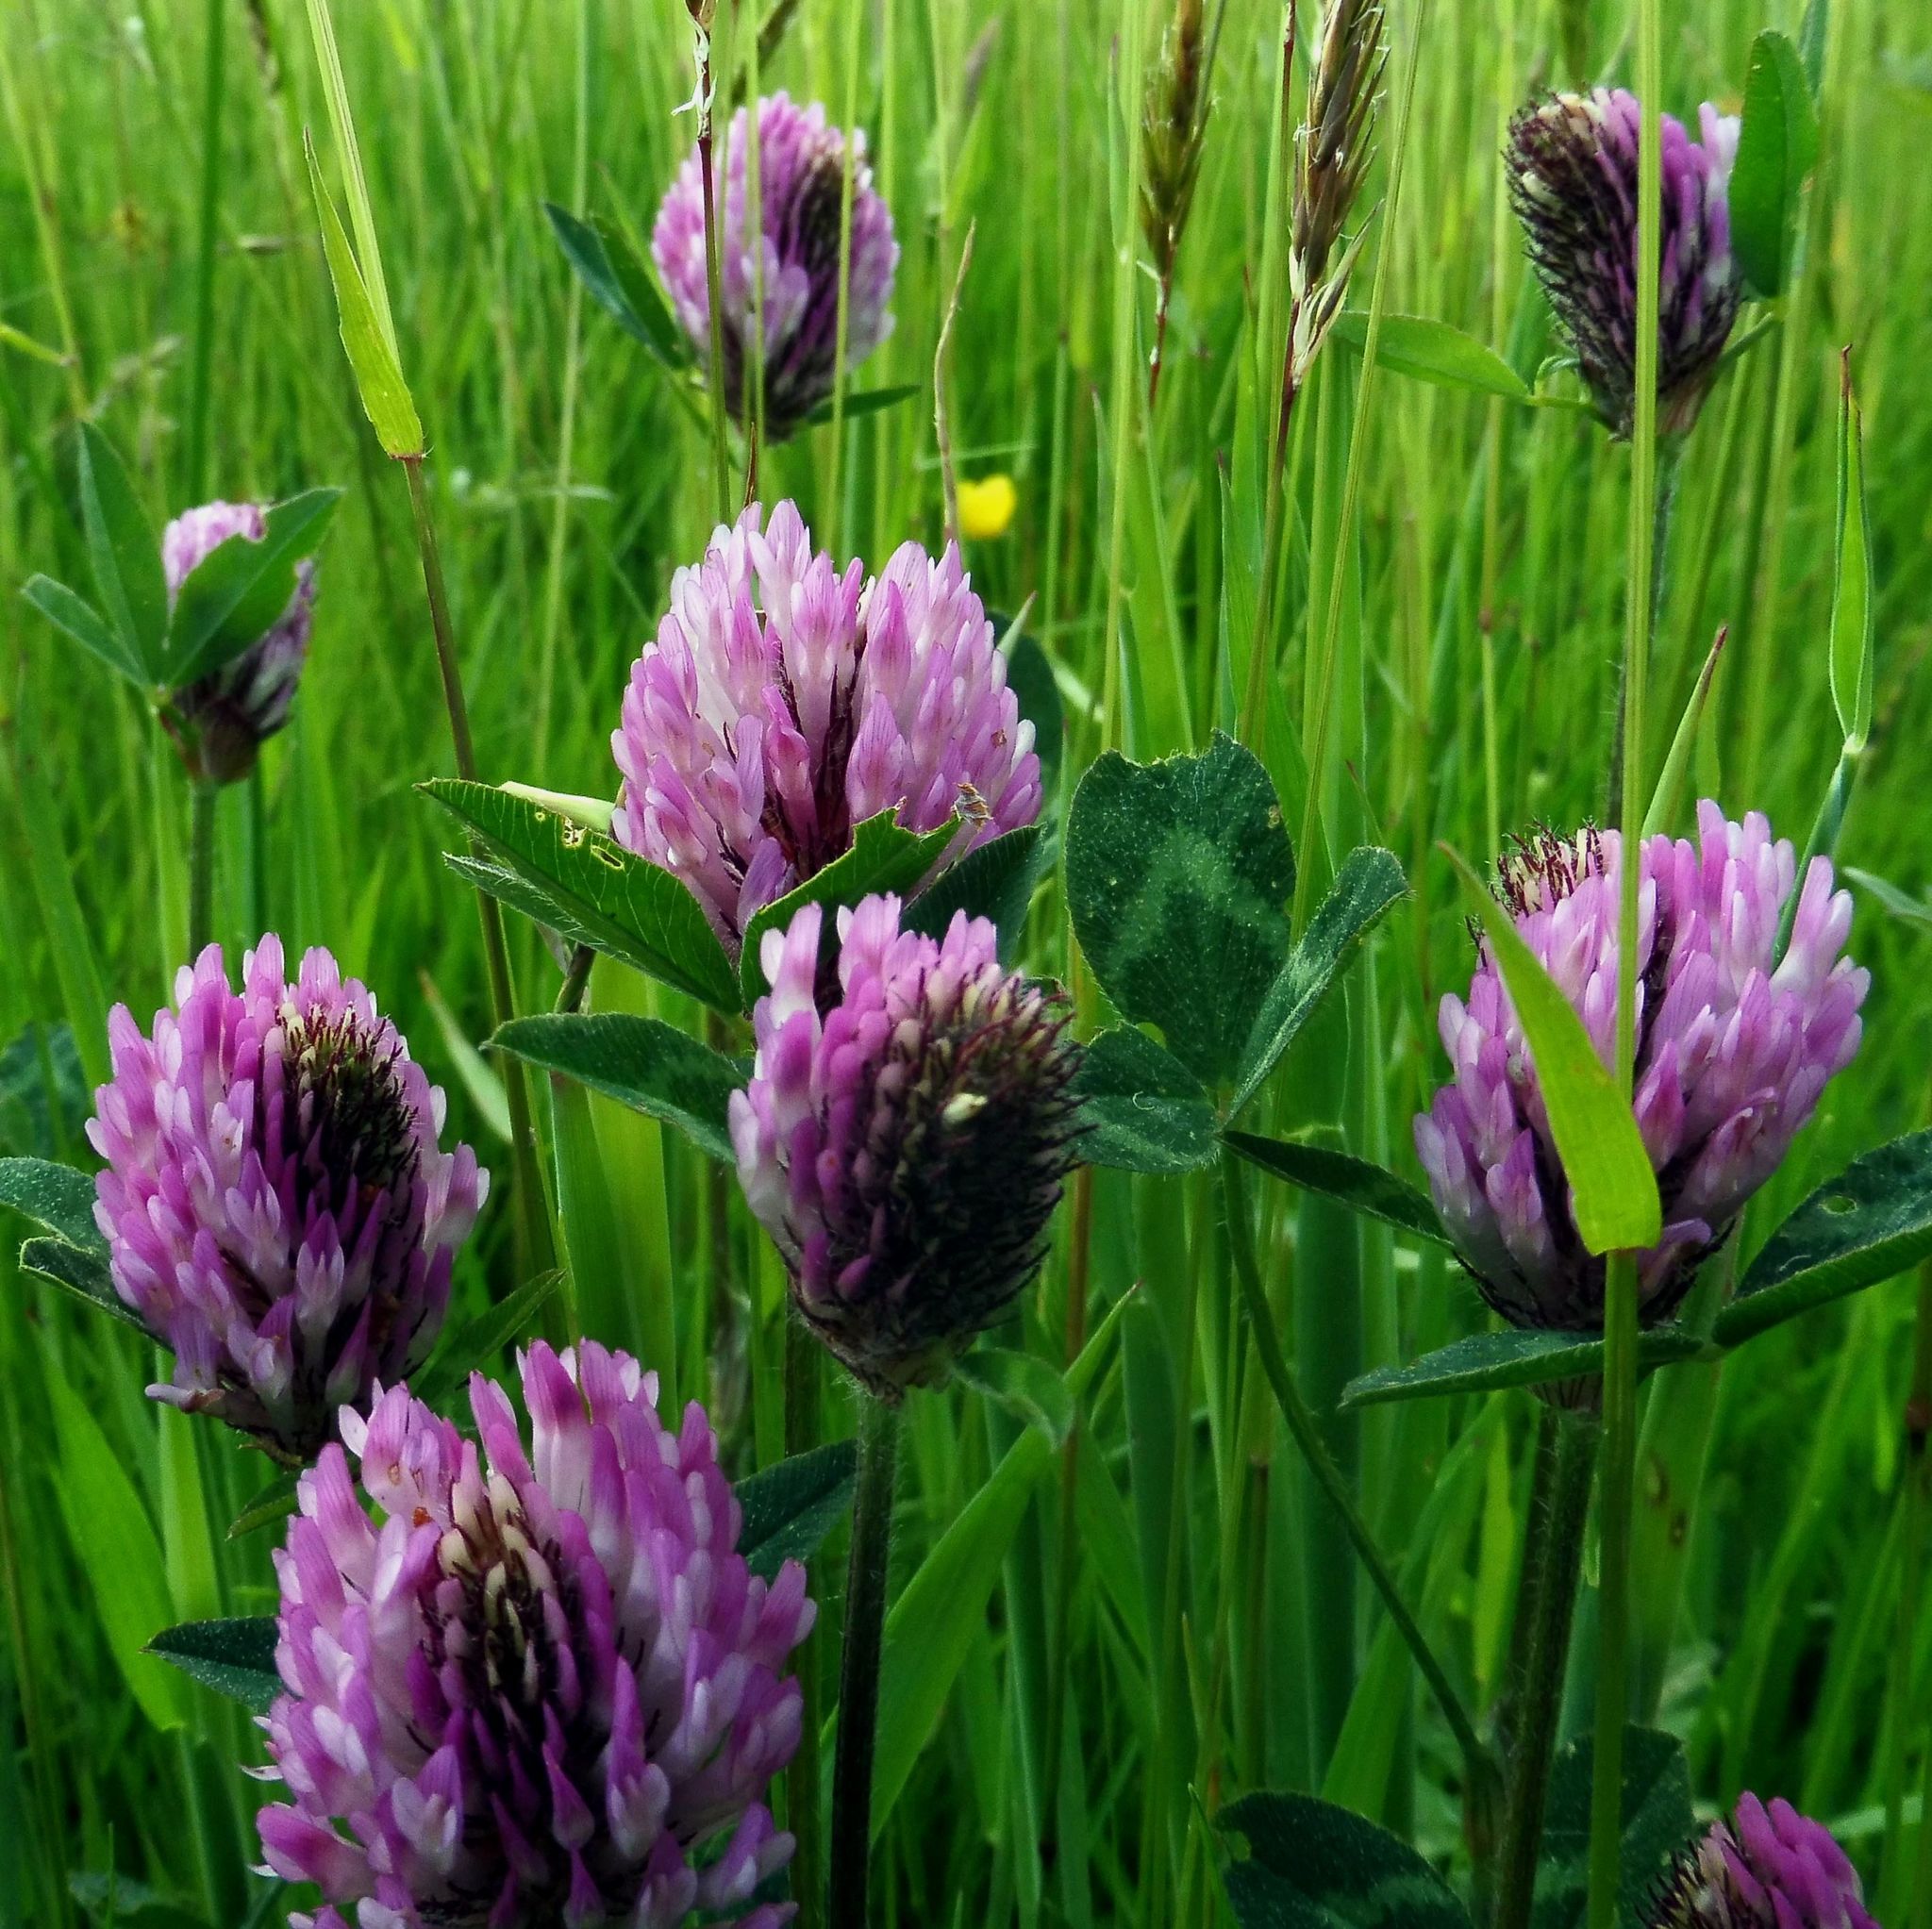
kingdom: Plantae
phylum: Tracheophyta
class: Magnoliopsida
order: Fabales
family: Fabaceae
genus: Trifolium
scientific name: Trifolium pratense
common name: Red clover
